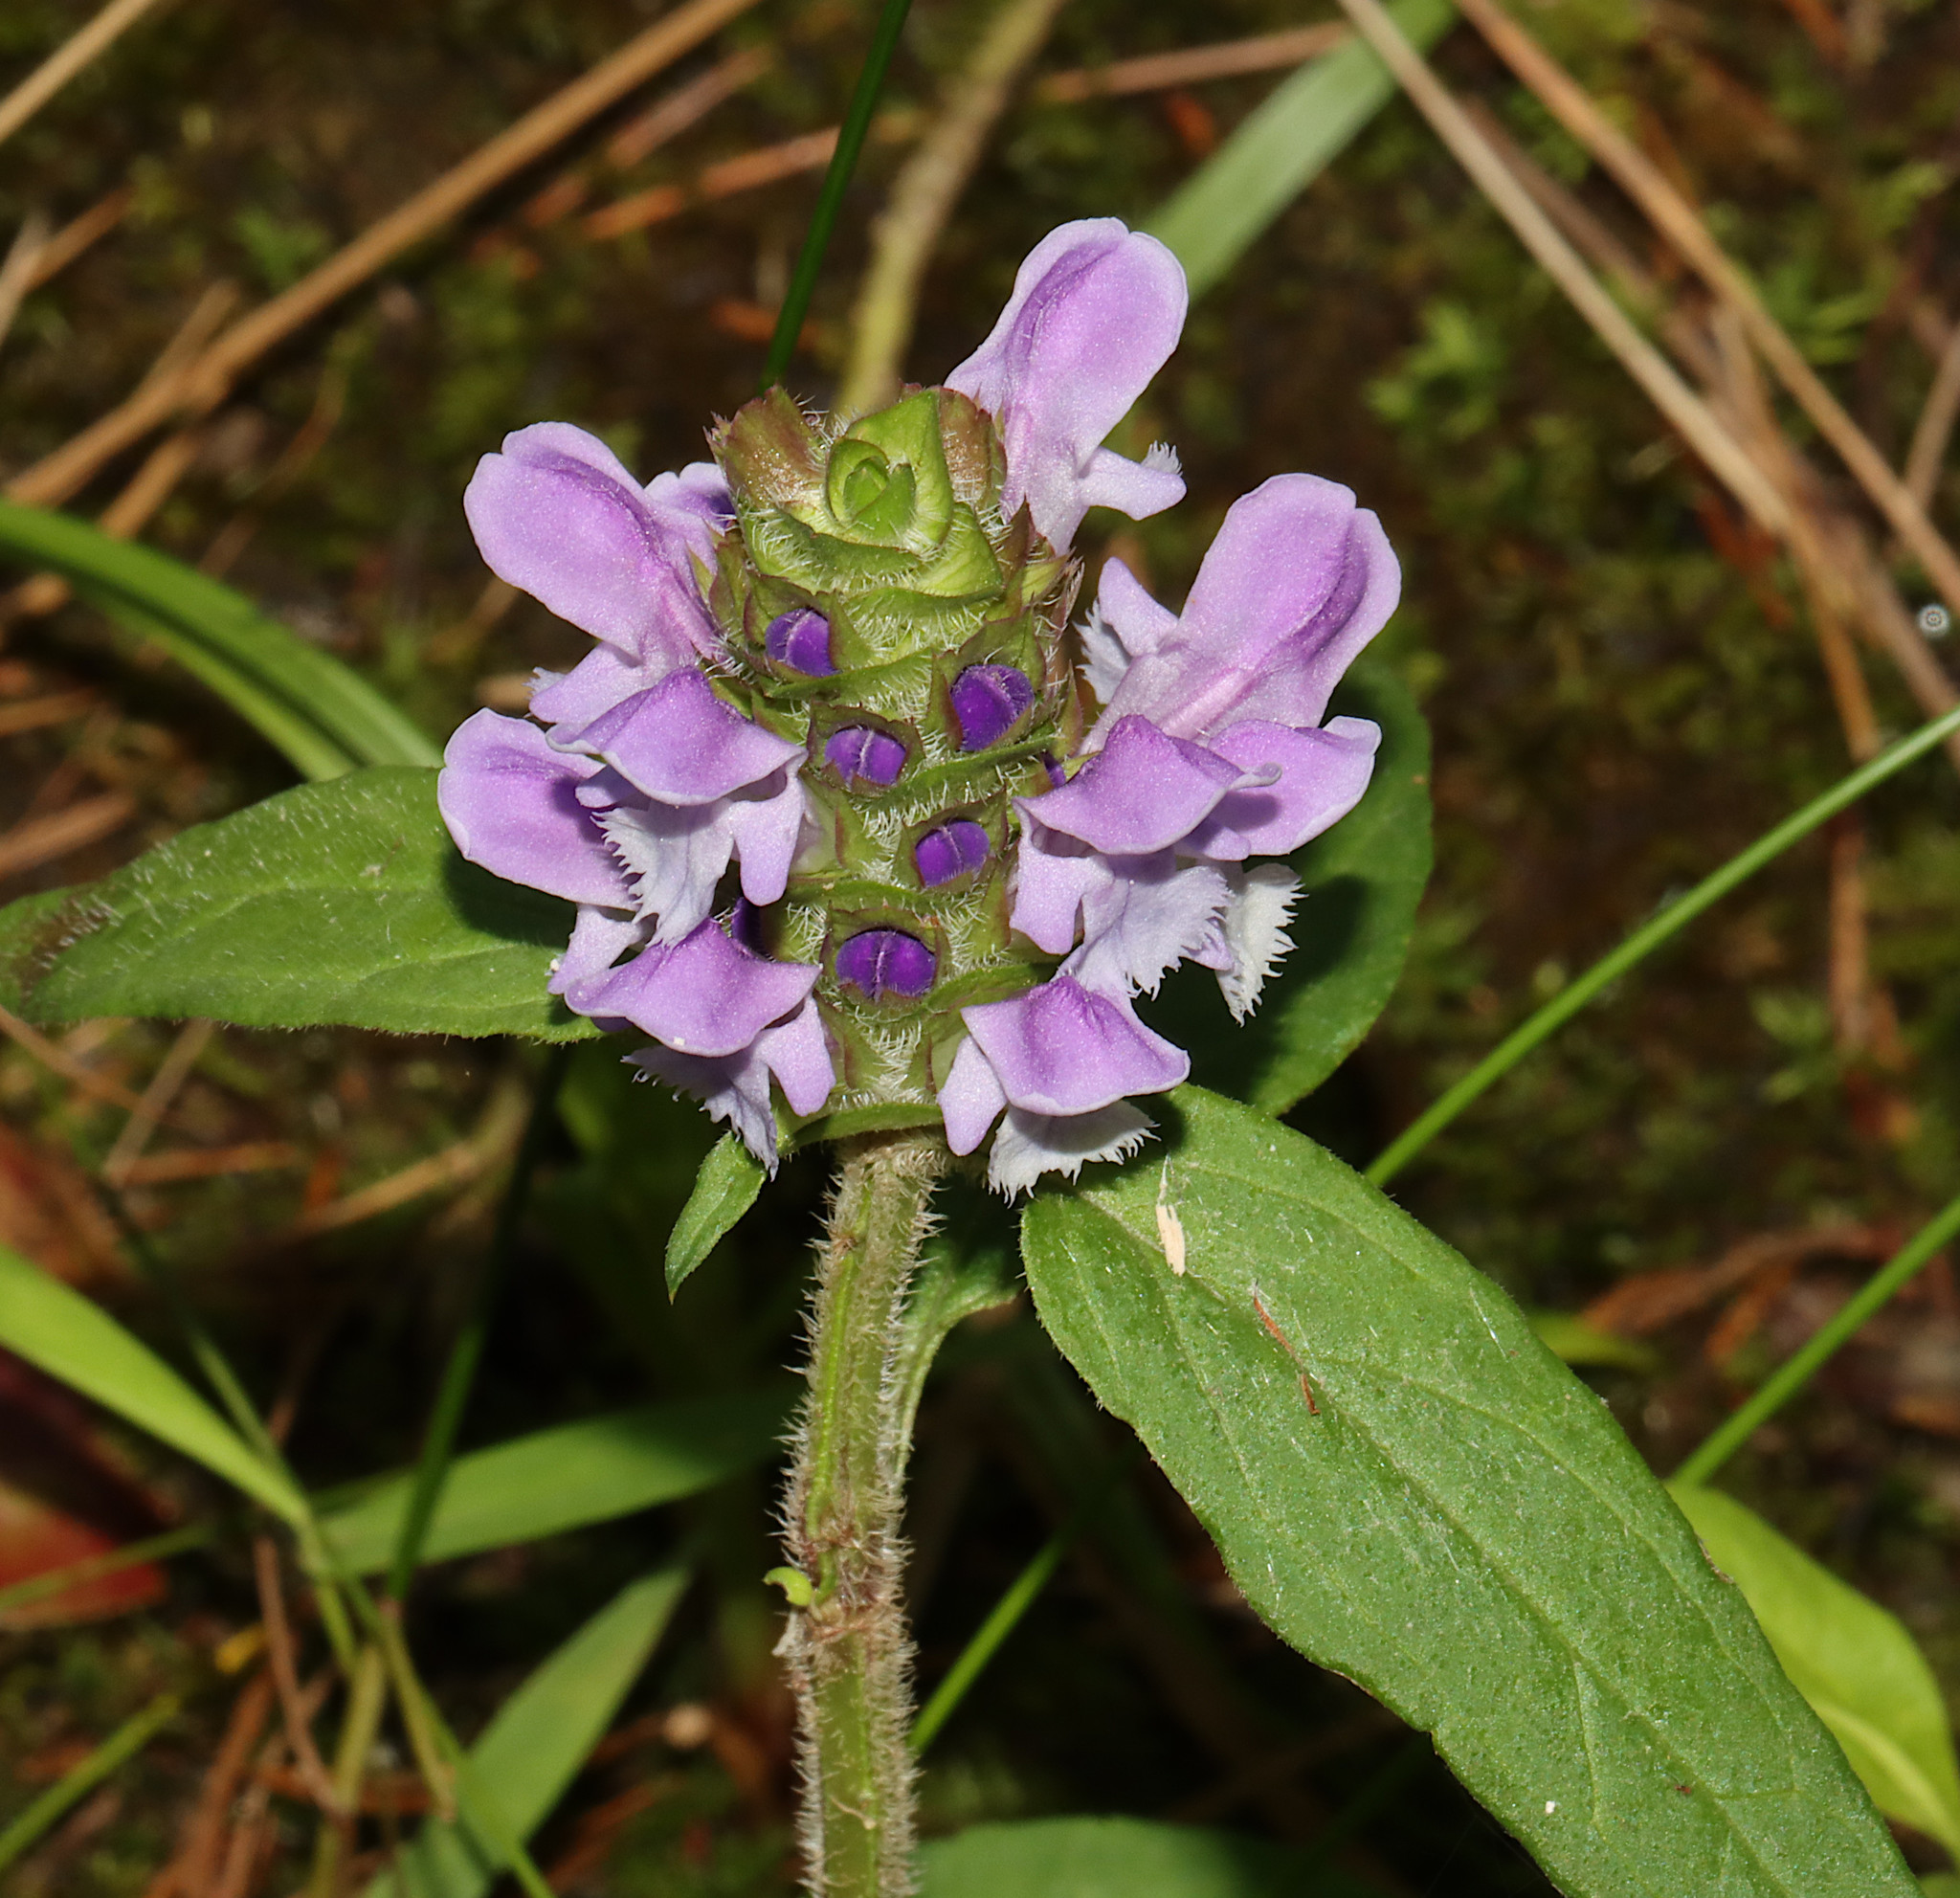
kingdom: Plantae
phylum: Tracheophyta
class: Magnoliopsida
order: Lamiales
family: Lamiaceae
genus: Prunella
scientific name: Prunella vulgaris
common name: Heal-all
